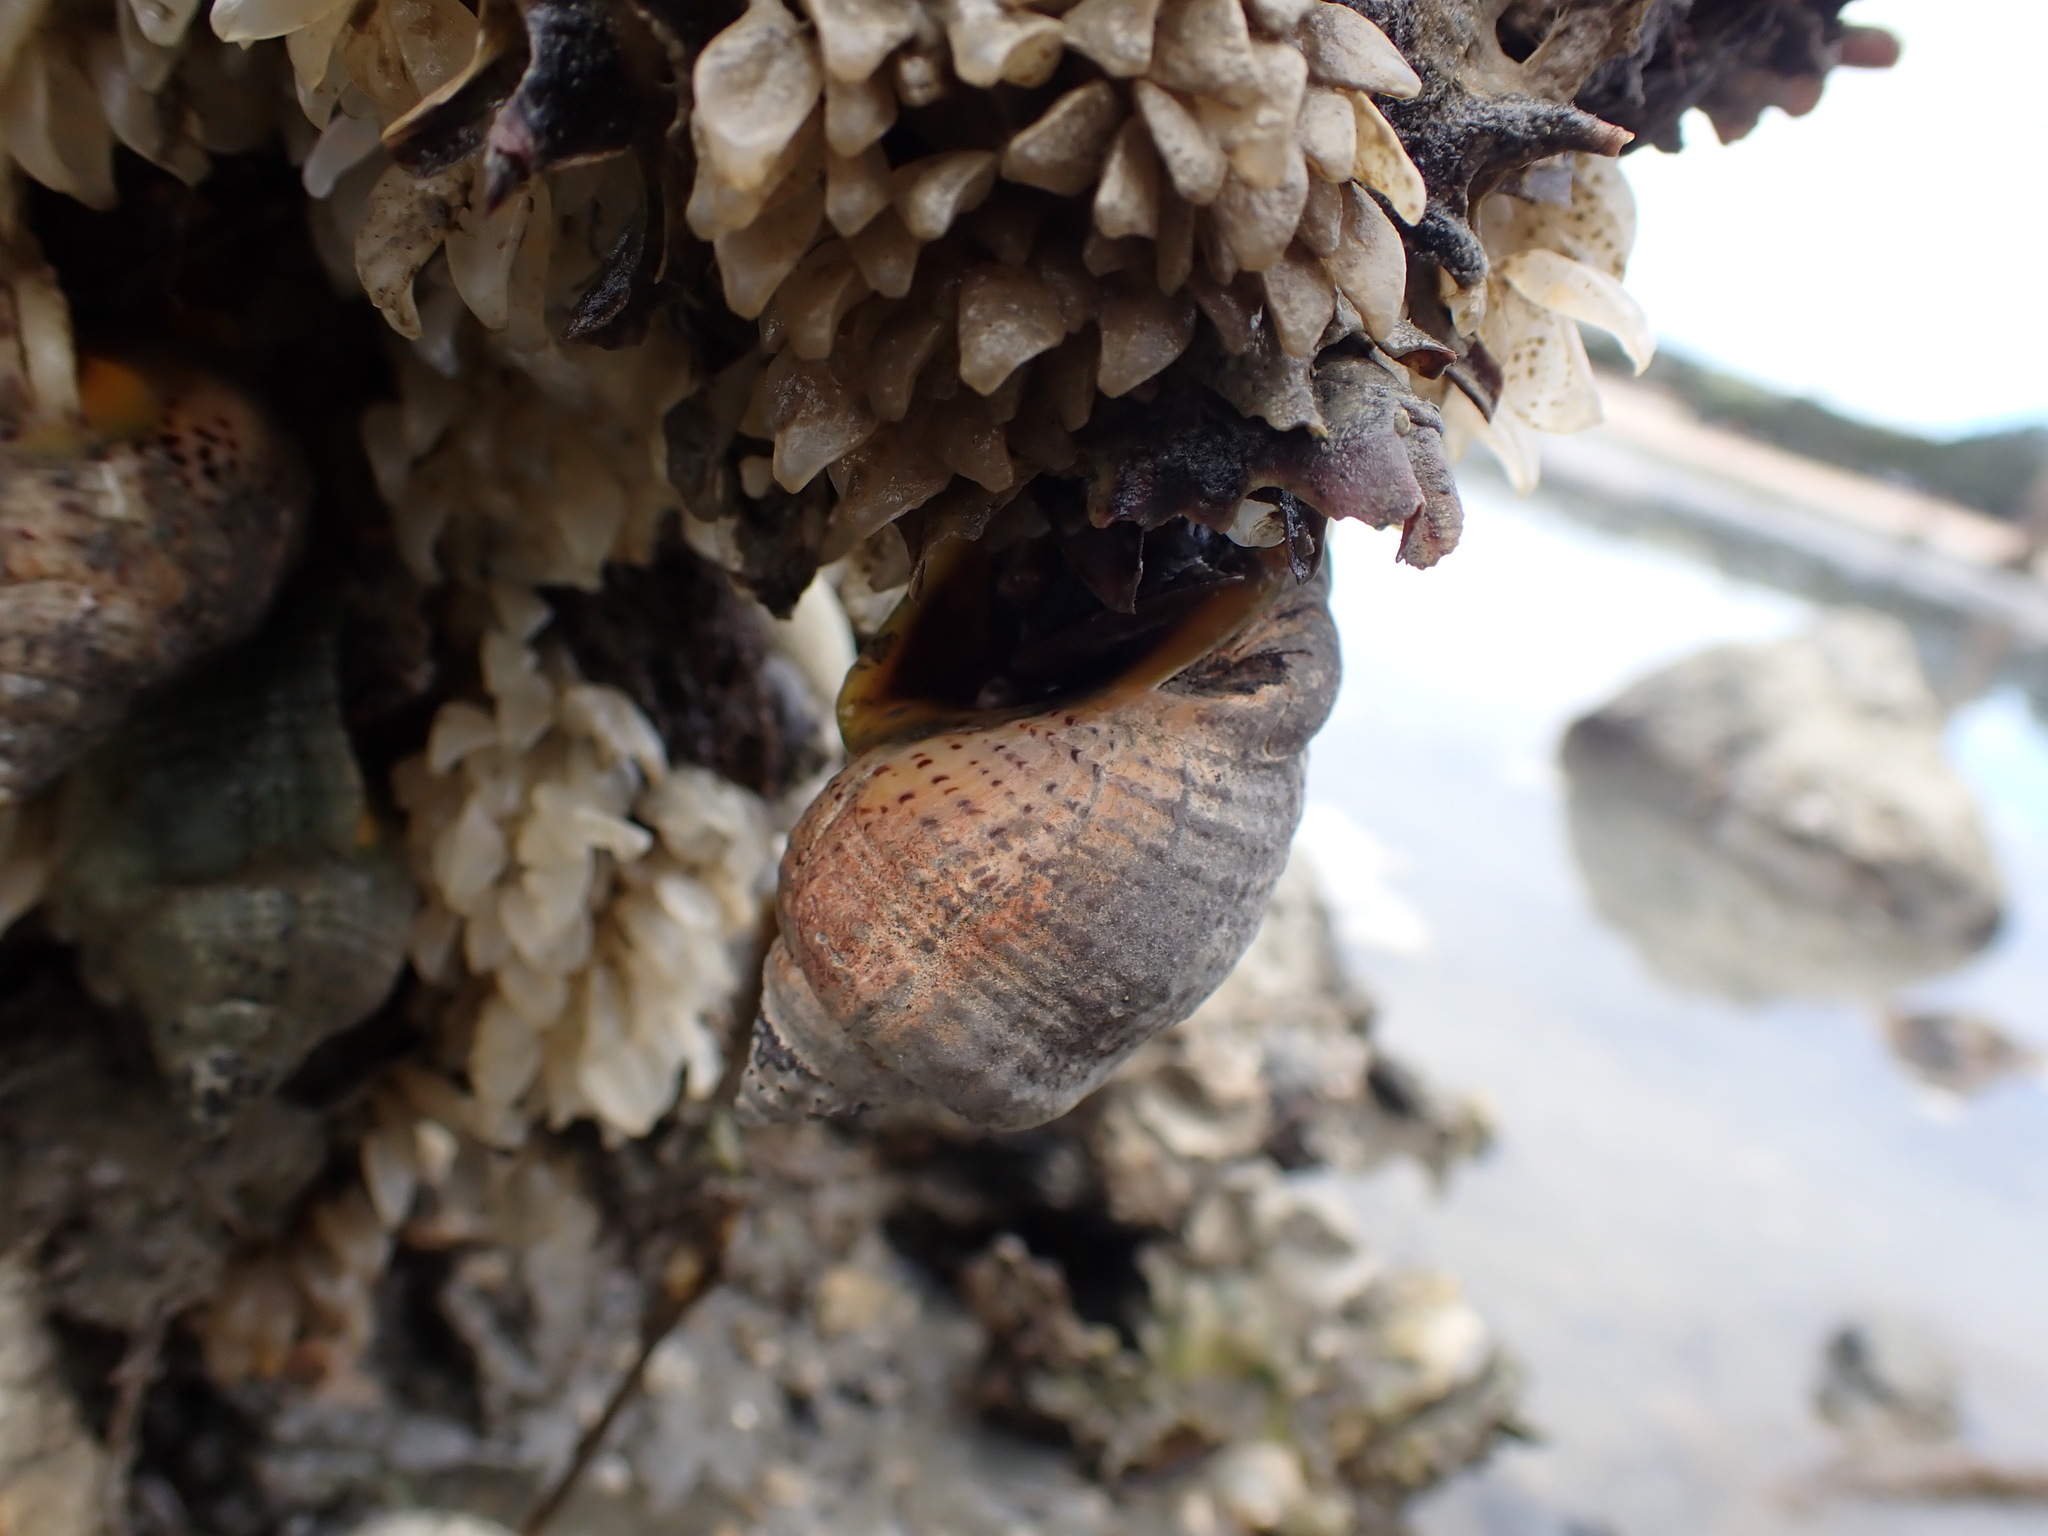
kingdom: Animalia
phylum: Mollusca
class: Gastropoda
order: Neogastropoda
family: Cominellidae
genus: Cominella
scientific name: Cominella adspersa
